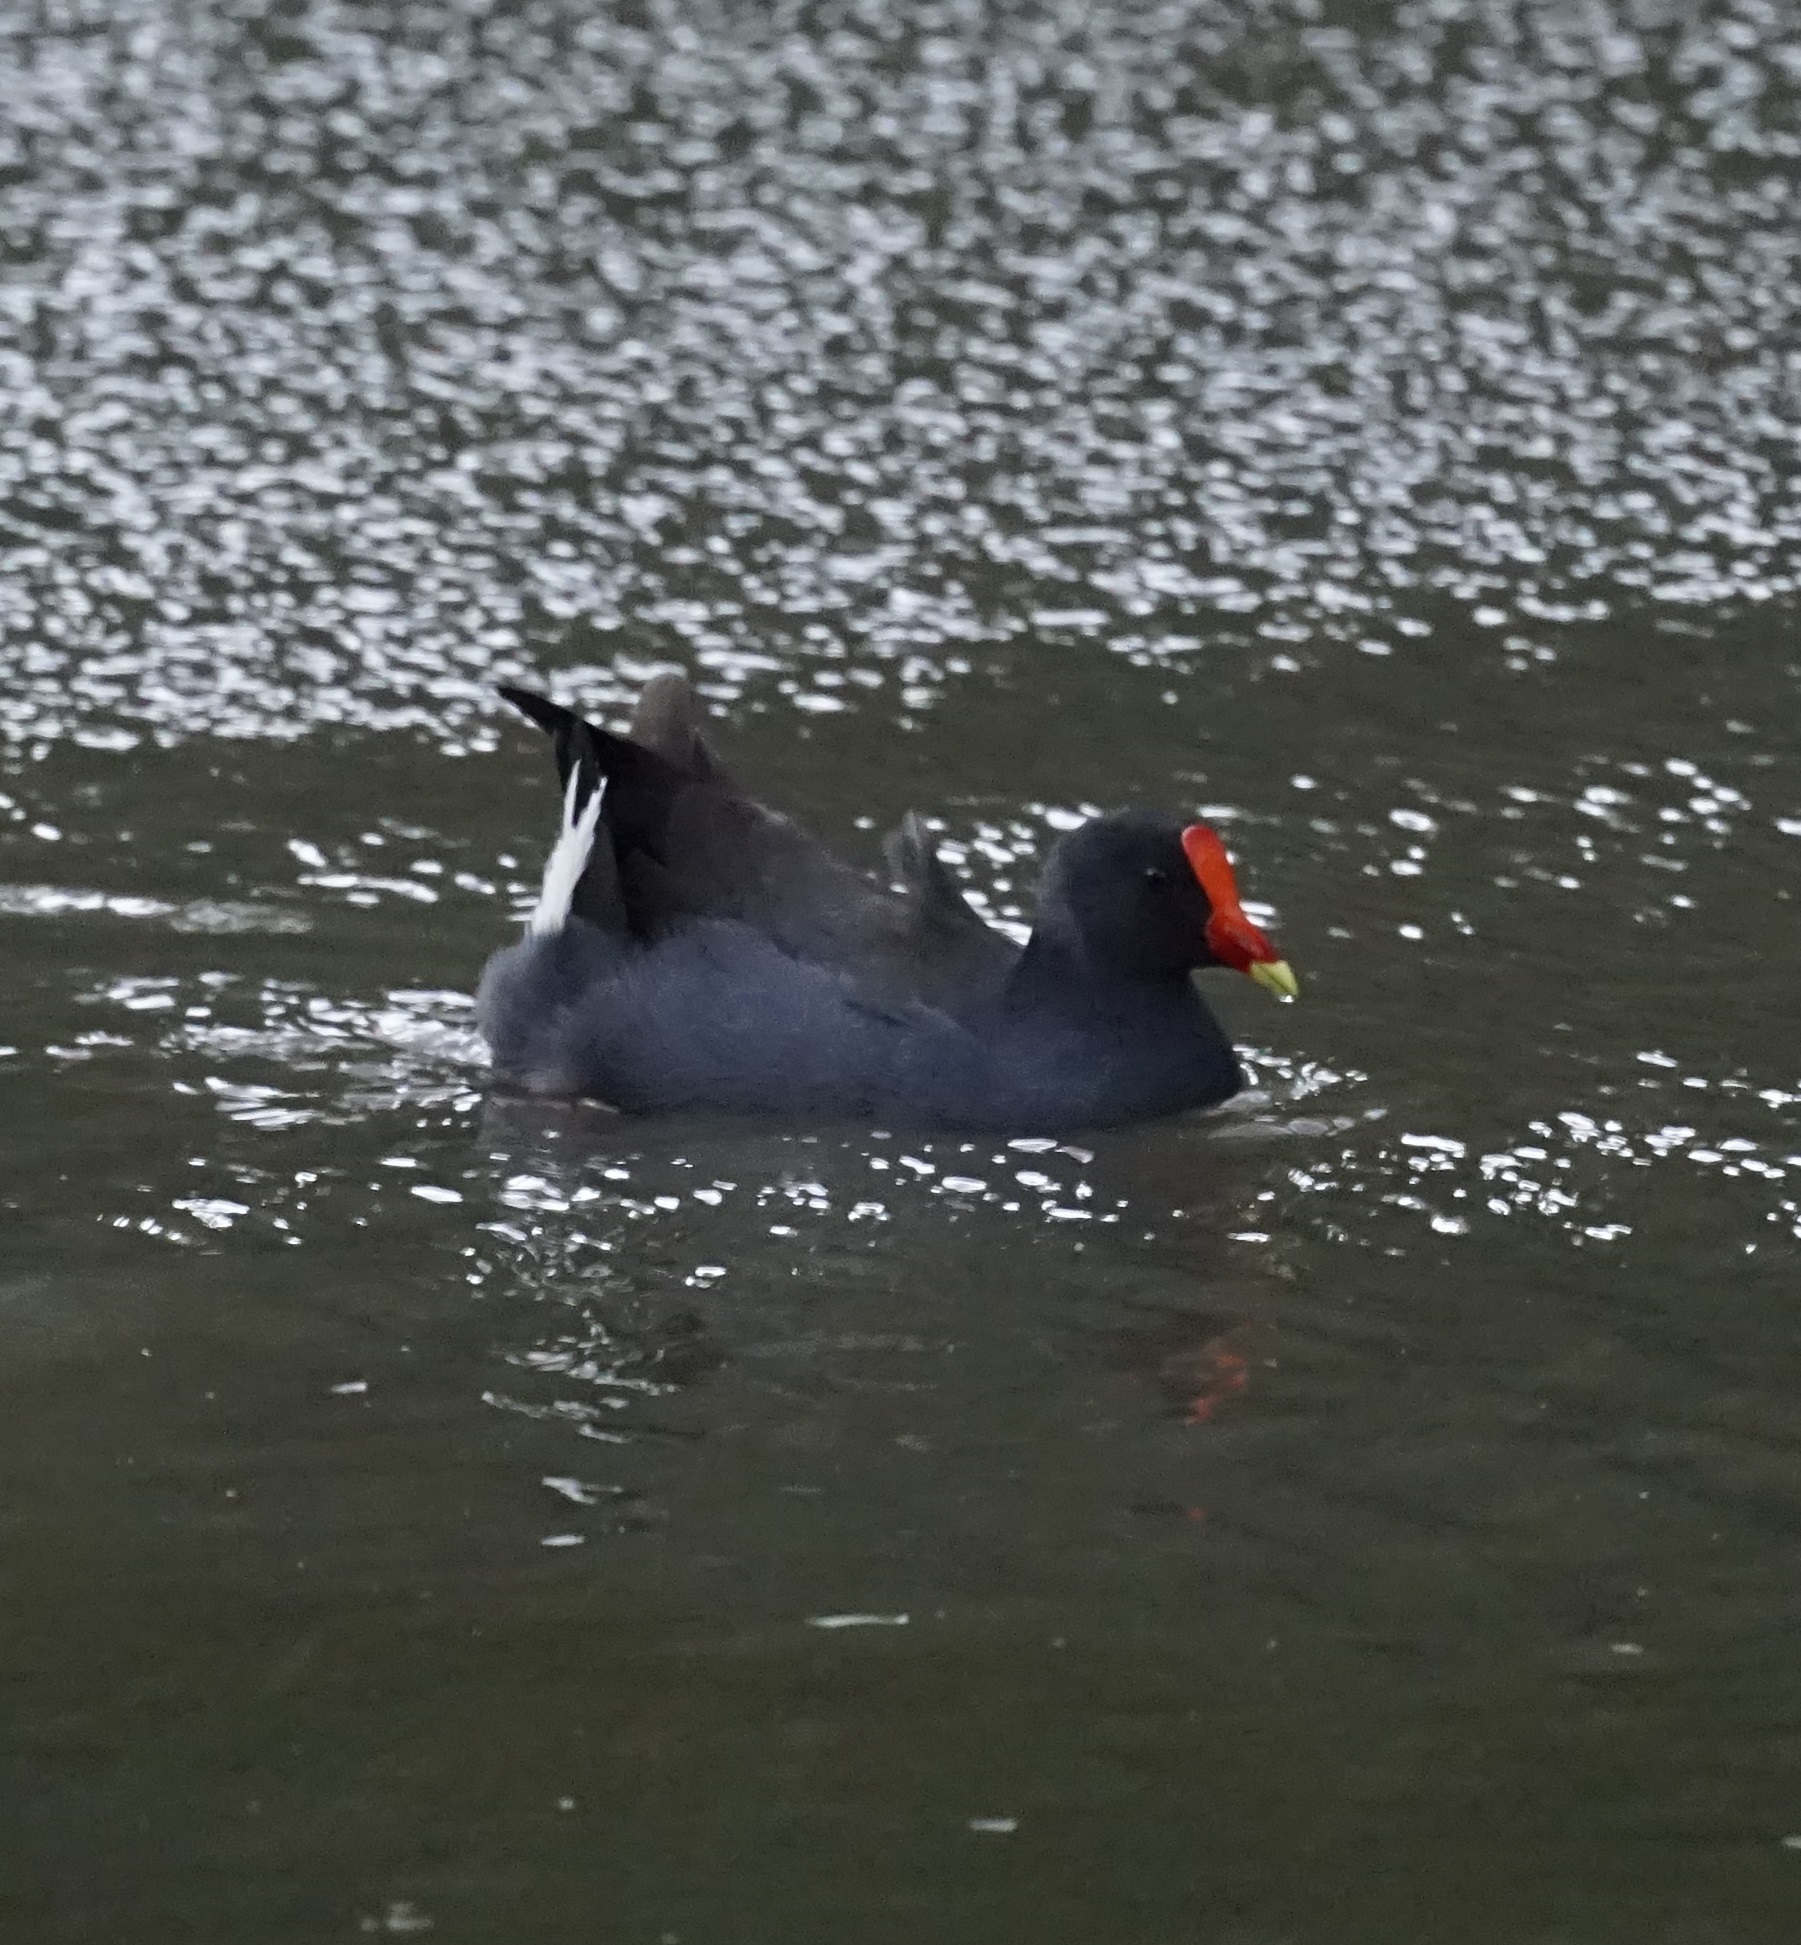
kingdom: Animalia
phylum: Chordata
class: Aves
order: Gruiformes
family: Rallidae
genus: Gallinula
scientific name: Gallinula tenebrosa
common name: Dusky moorhen
